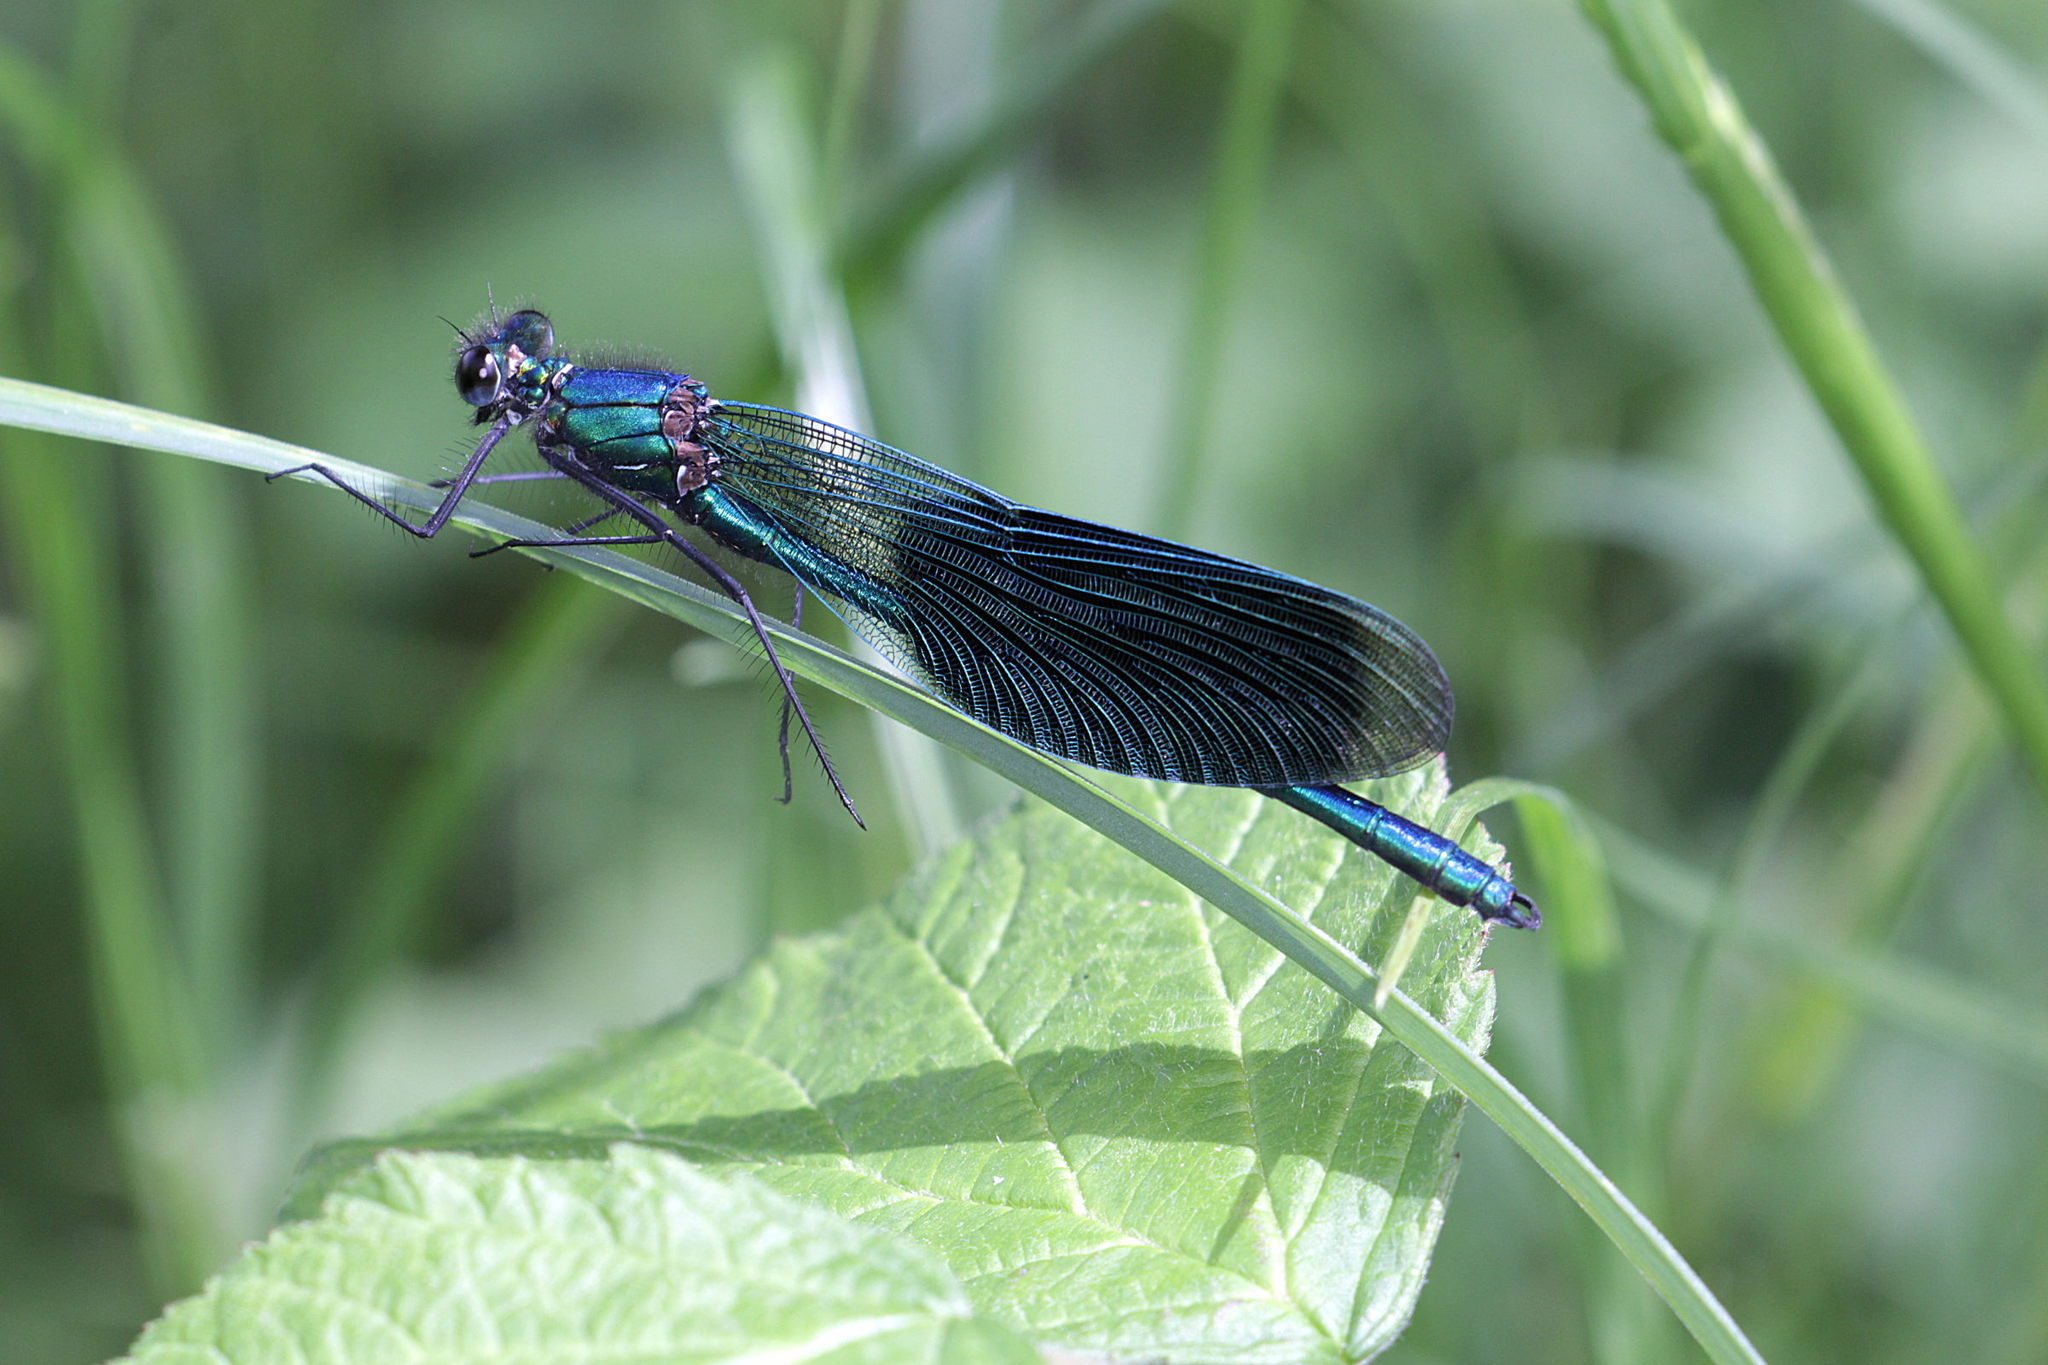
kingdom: Animalia
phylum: Arthropoda
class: Insecta
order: Odonata
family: Calopterygidae
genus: Calopteryx
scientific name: Calopteryx splendens
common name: Banded demoiselle
